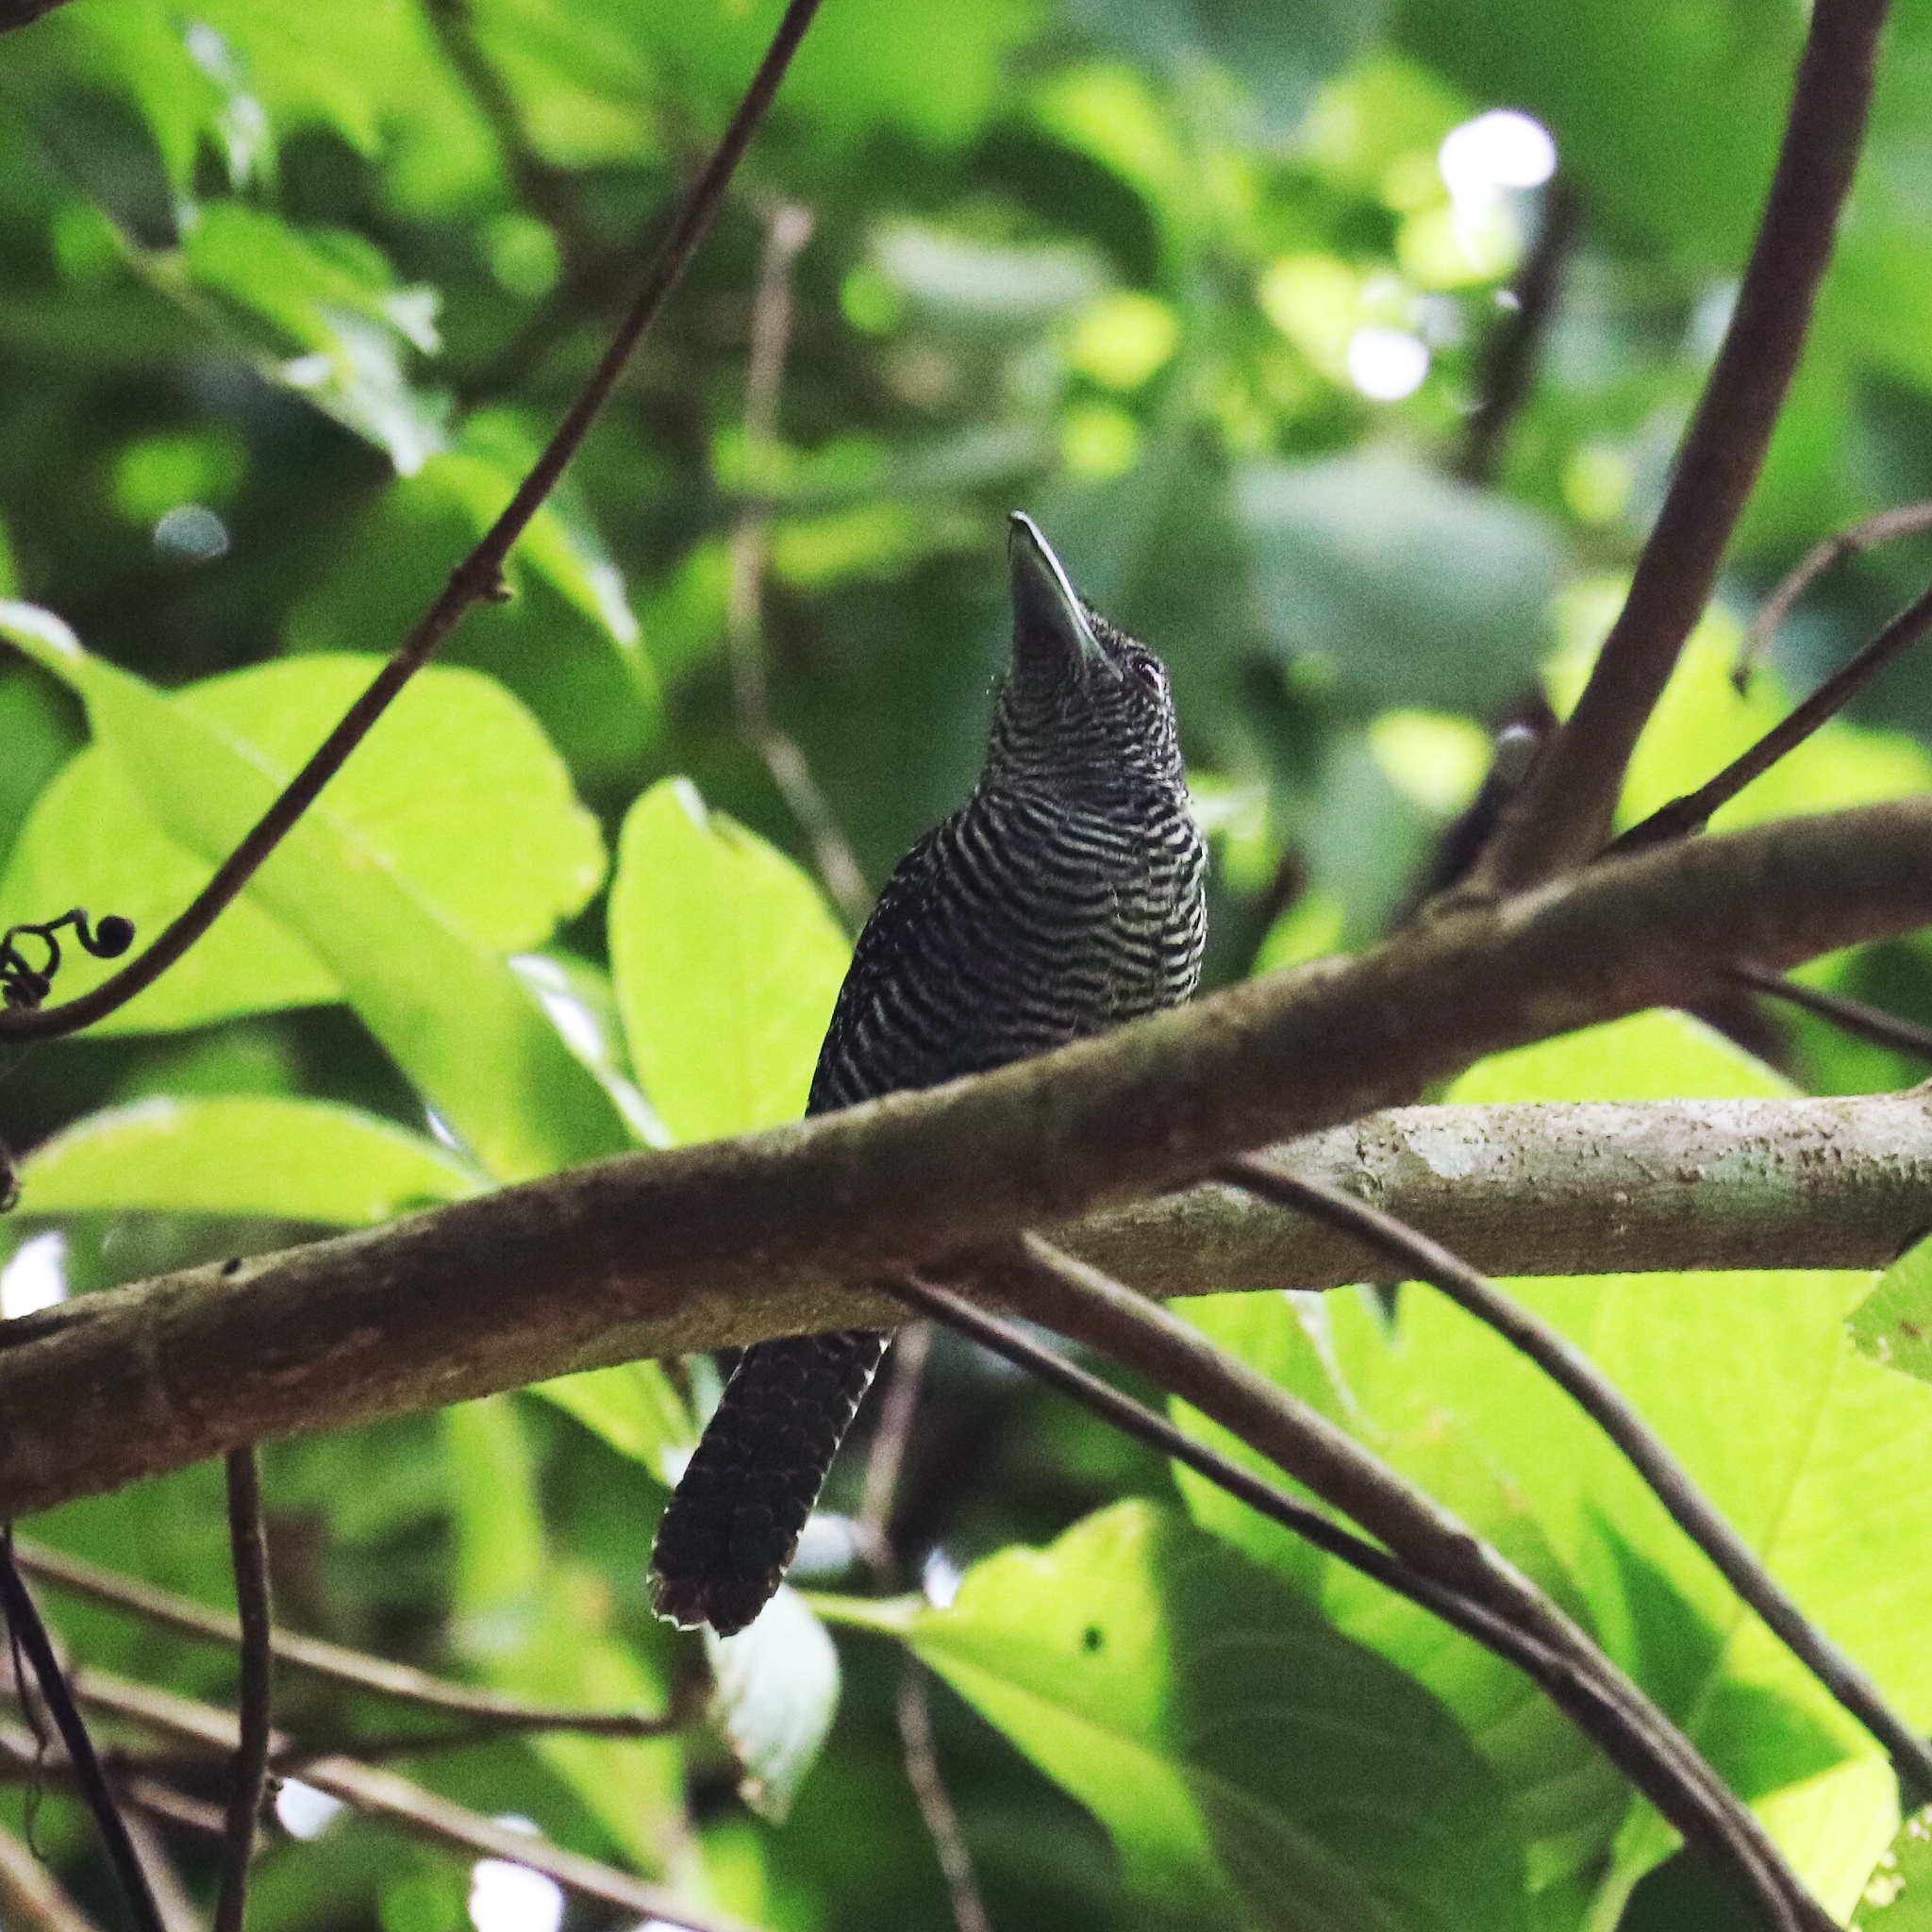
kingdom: Animalia
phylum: Chordata
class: Aves
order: Passeriformes
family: Thamnophilidae
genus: Cymbilaimus
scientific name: Cymbilaimus lineatus
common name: Fasciated antshrike
